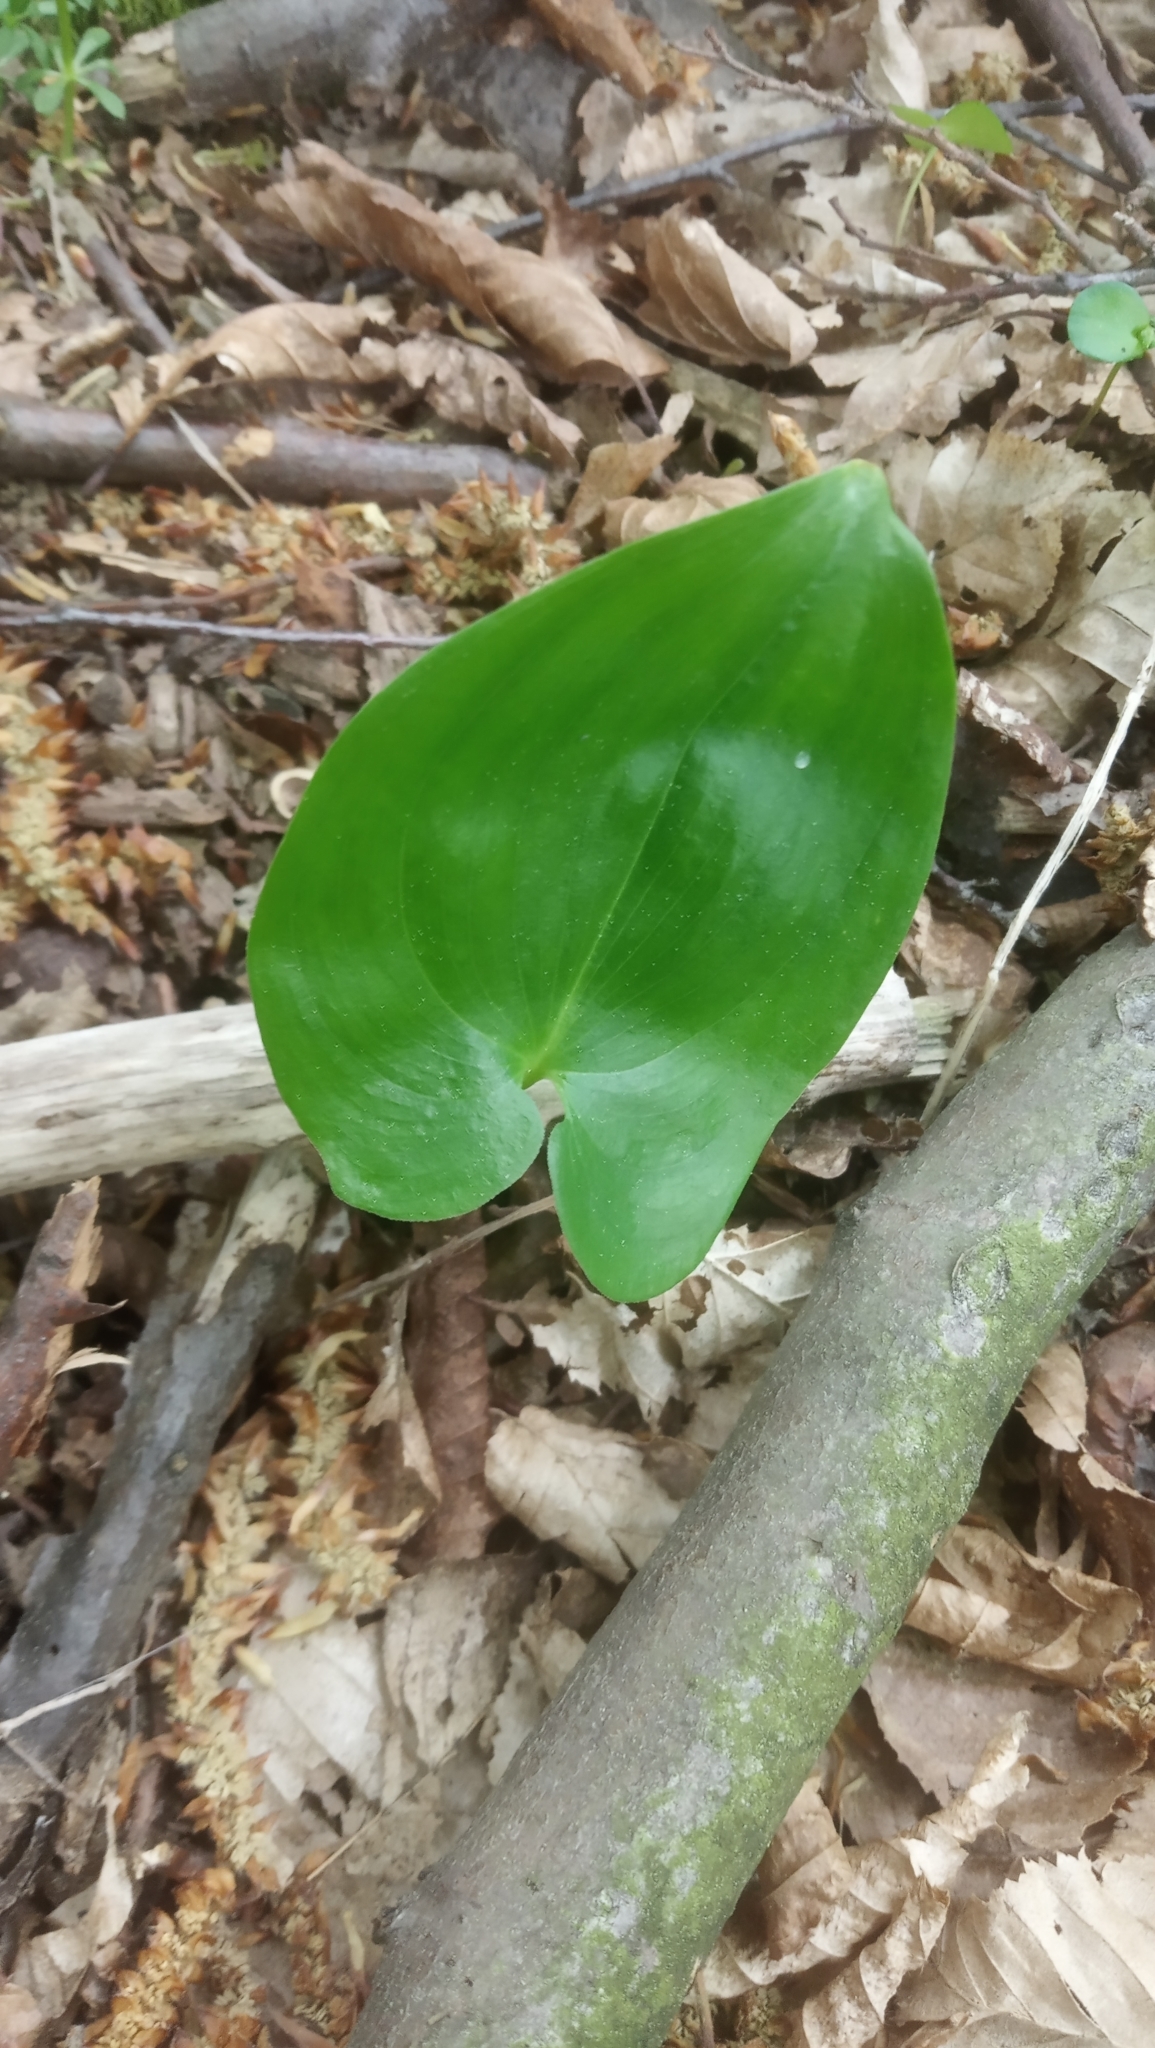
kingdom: Plantae
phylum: Tracheophyta
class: Liliopsida
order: Asparagales
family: Asparagaceae
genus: Maianthemum
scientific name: Maianthemum bifolium
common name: May lily
